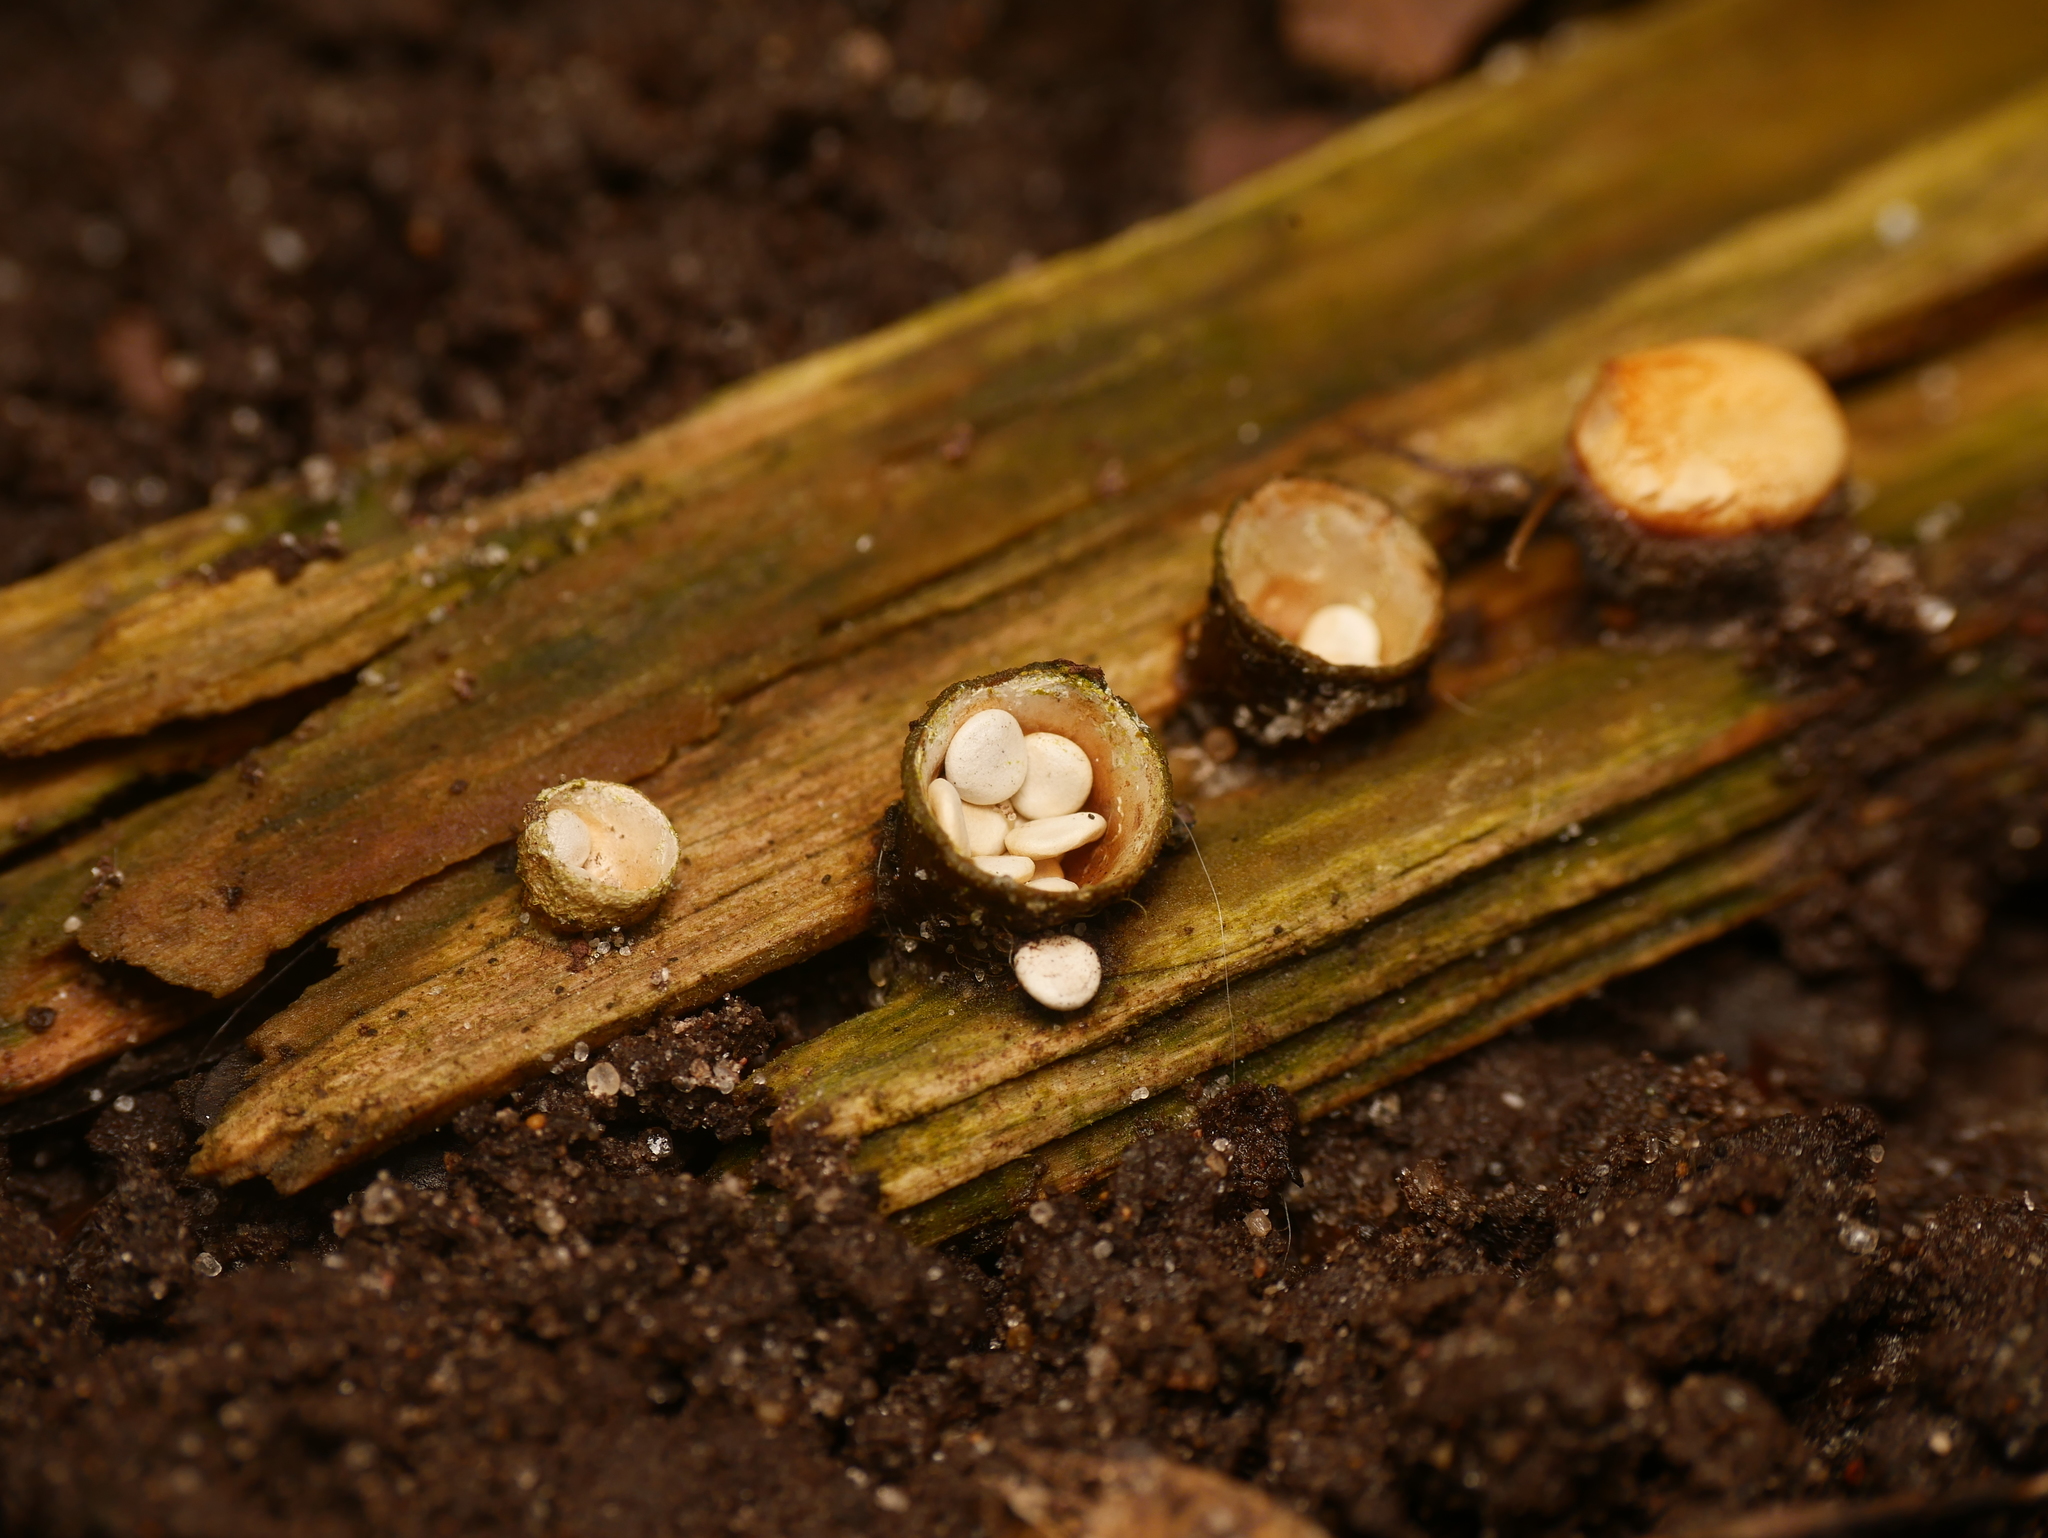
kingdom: Fungi
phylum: Basidiomycota
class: Agaricomycetes
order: Agaricales
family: Nidulariaceae
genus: Crucibulum
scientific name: Crucibulum laeve
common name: Common bird's nest
